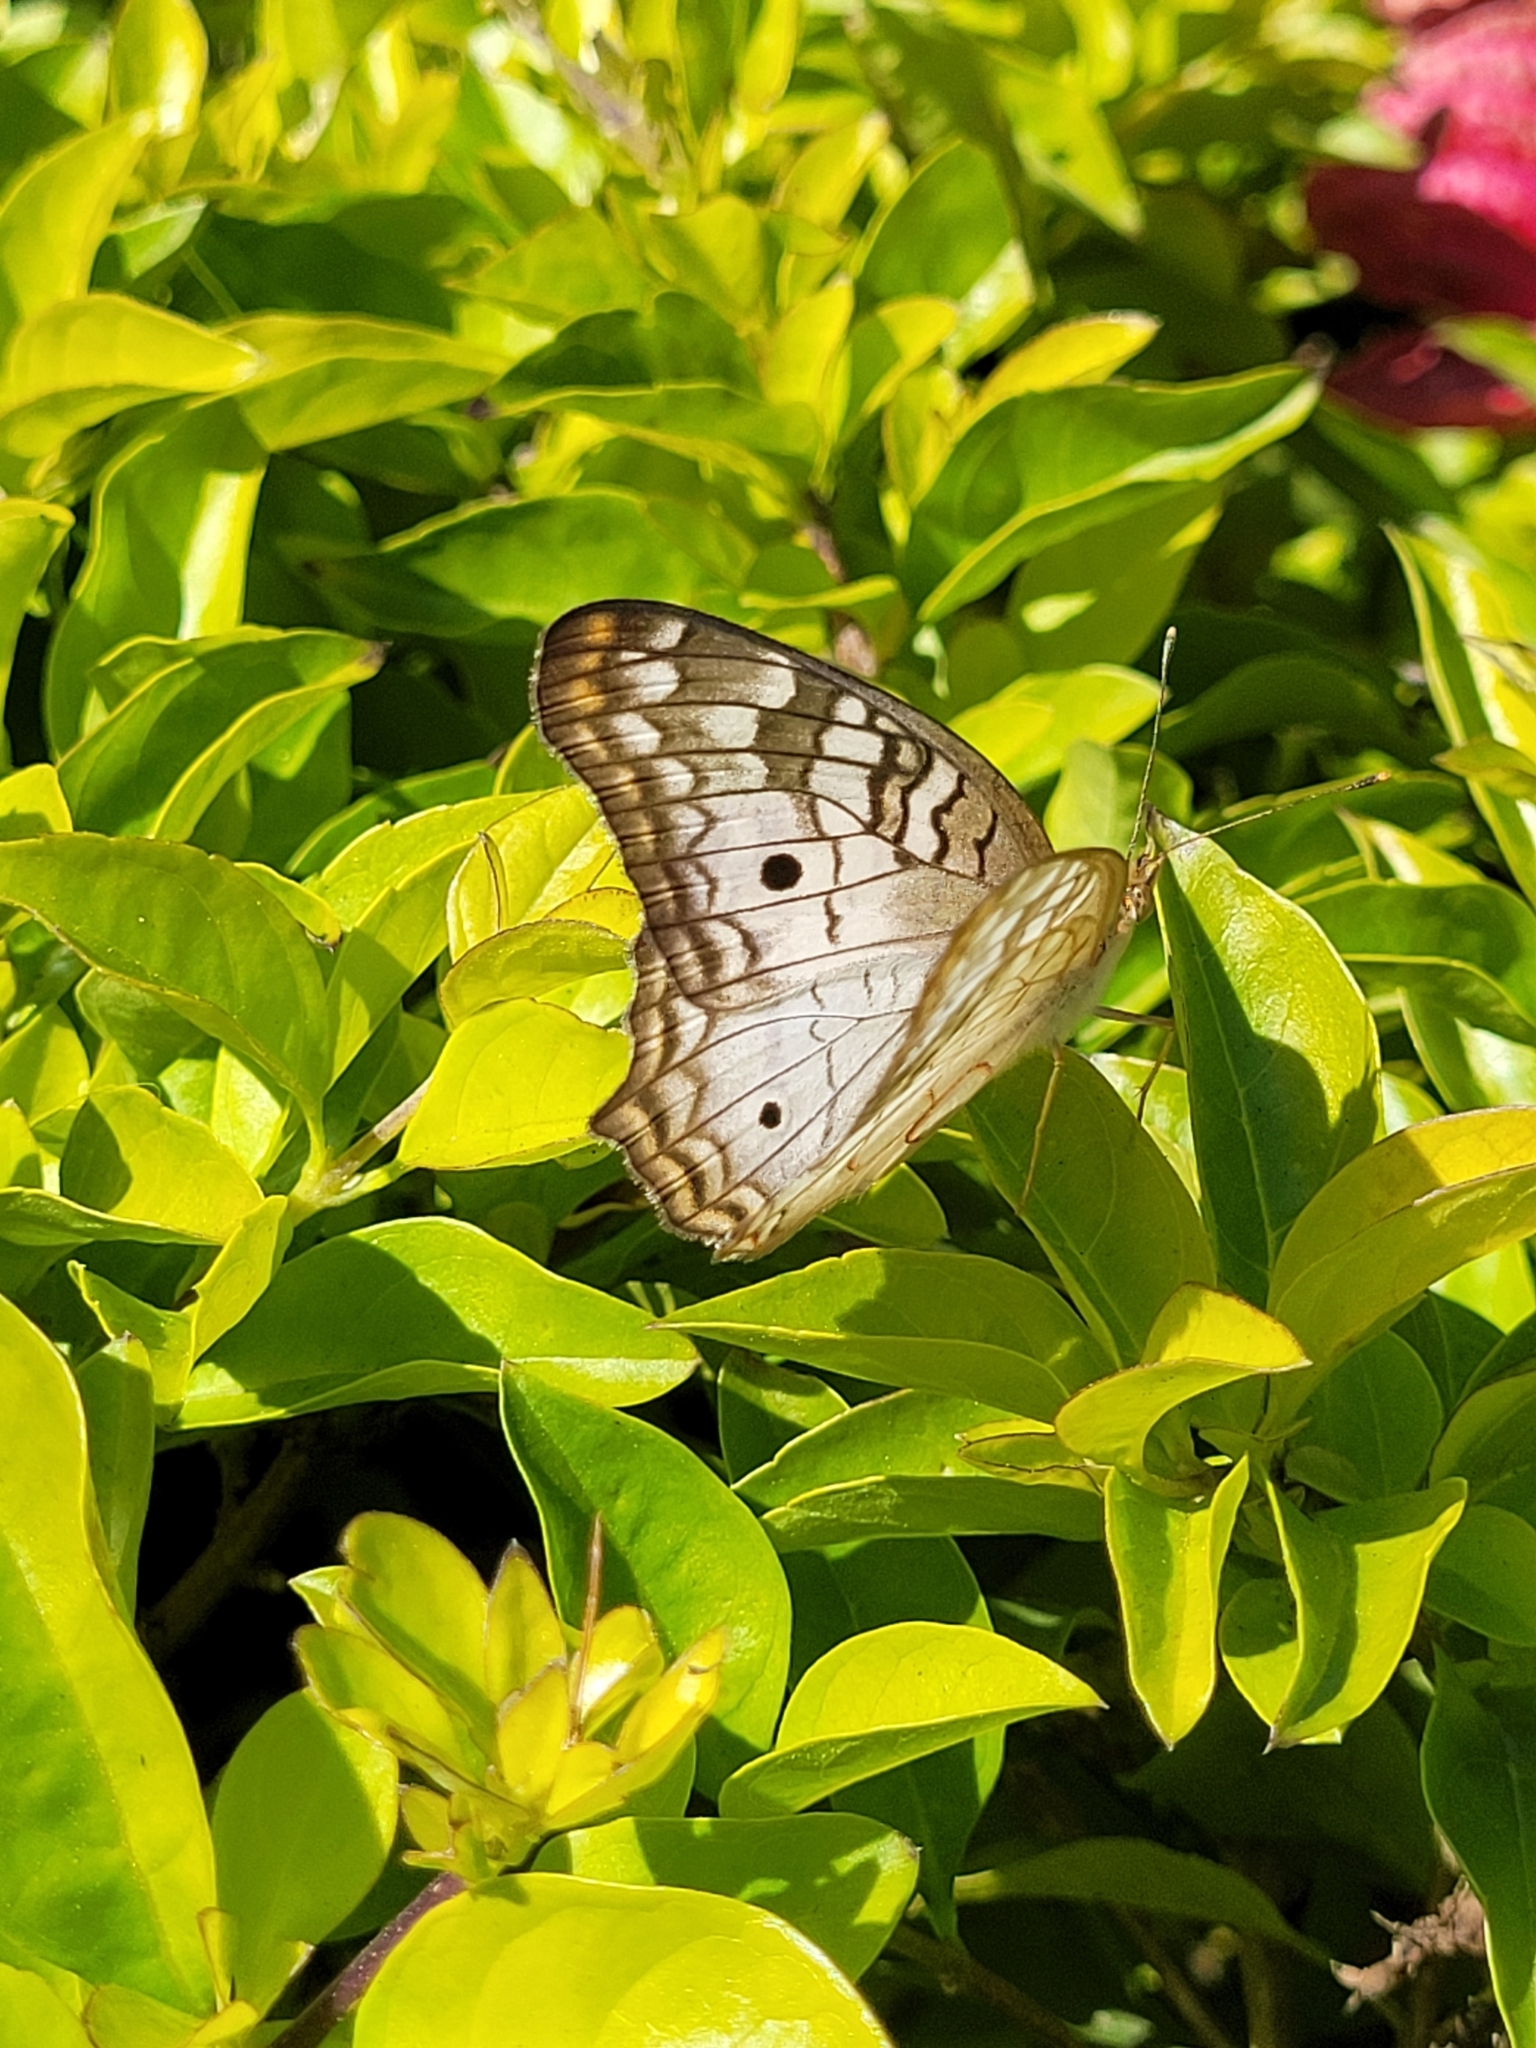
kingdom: Animalia
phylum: Arthropoda
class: Insecta
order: Lepidoptera
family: Nymphalidae
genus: Anartia
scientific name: Anartia jatrophae
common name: White peacock
